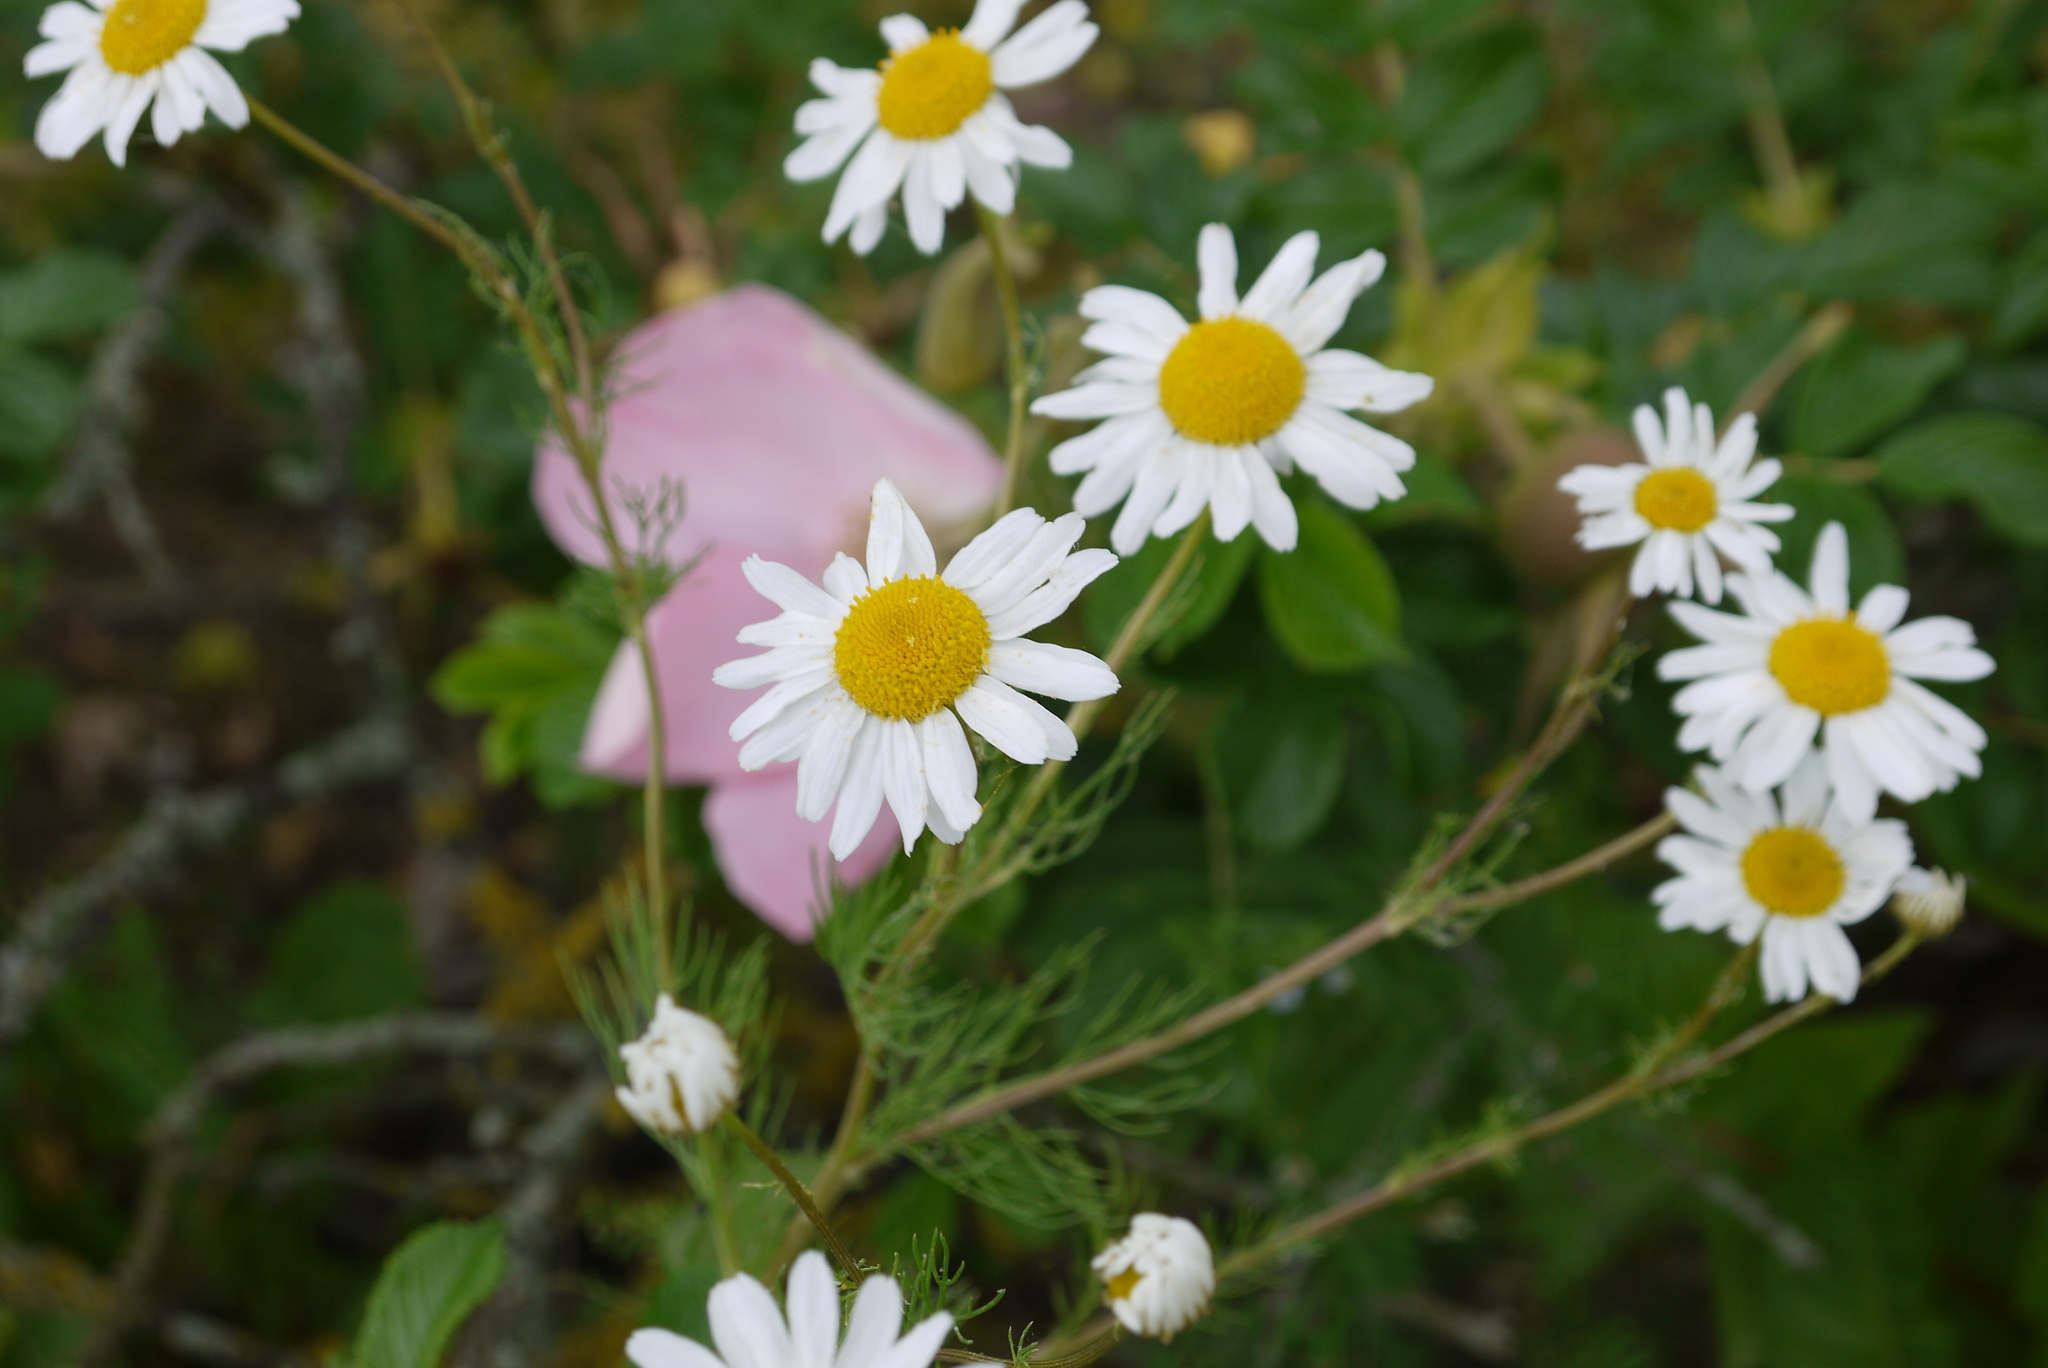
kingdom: Plantae
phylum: Tracheophyta
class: Magnoliopsida
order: Asterales
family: Asteraceae
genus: Tripleurospermum
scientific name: Tripleurospermum inodorum
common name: Scentless mayweed
